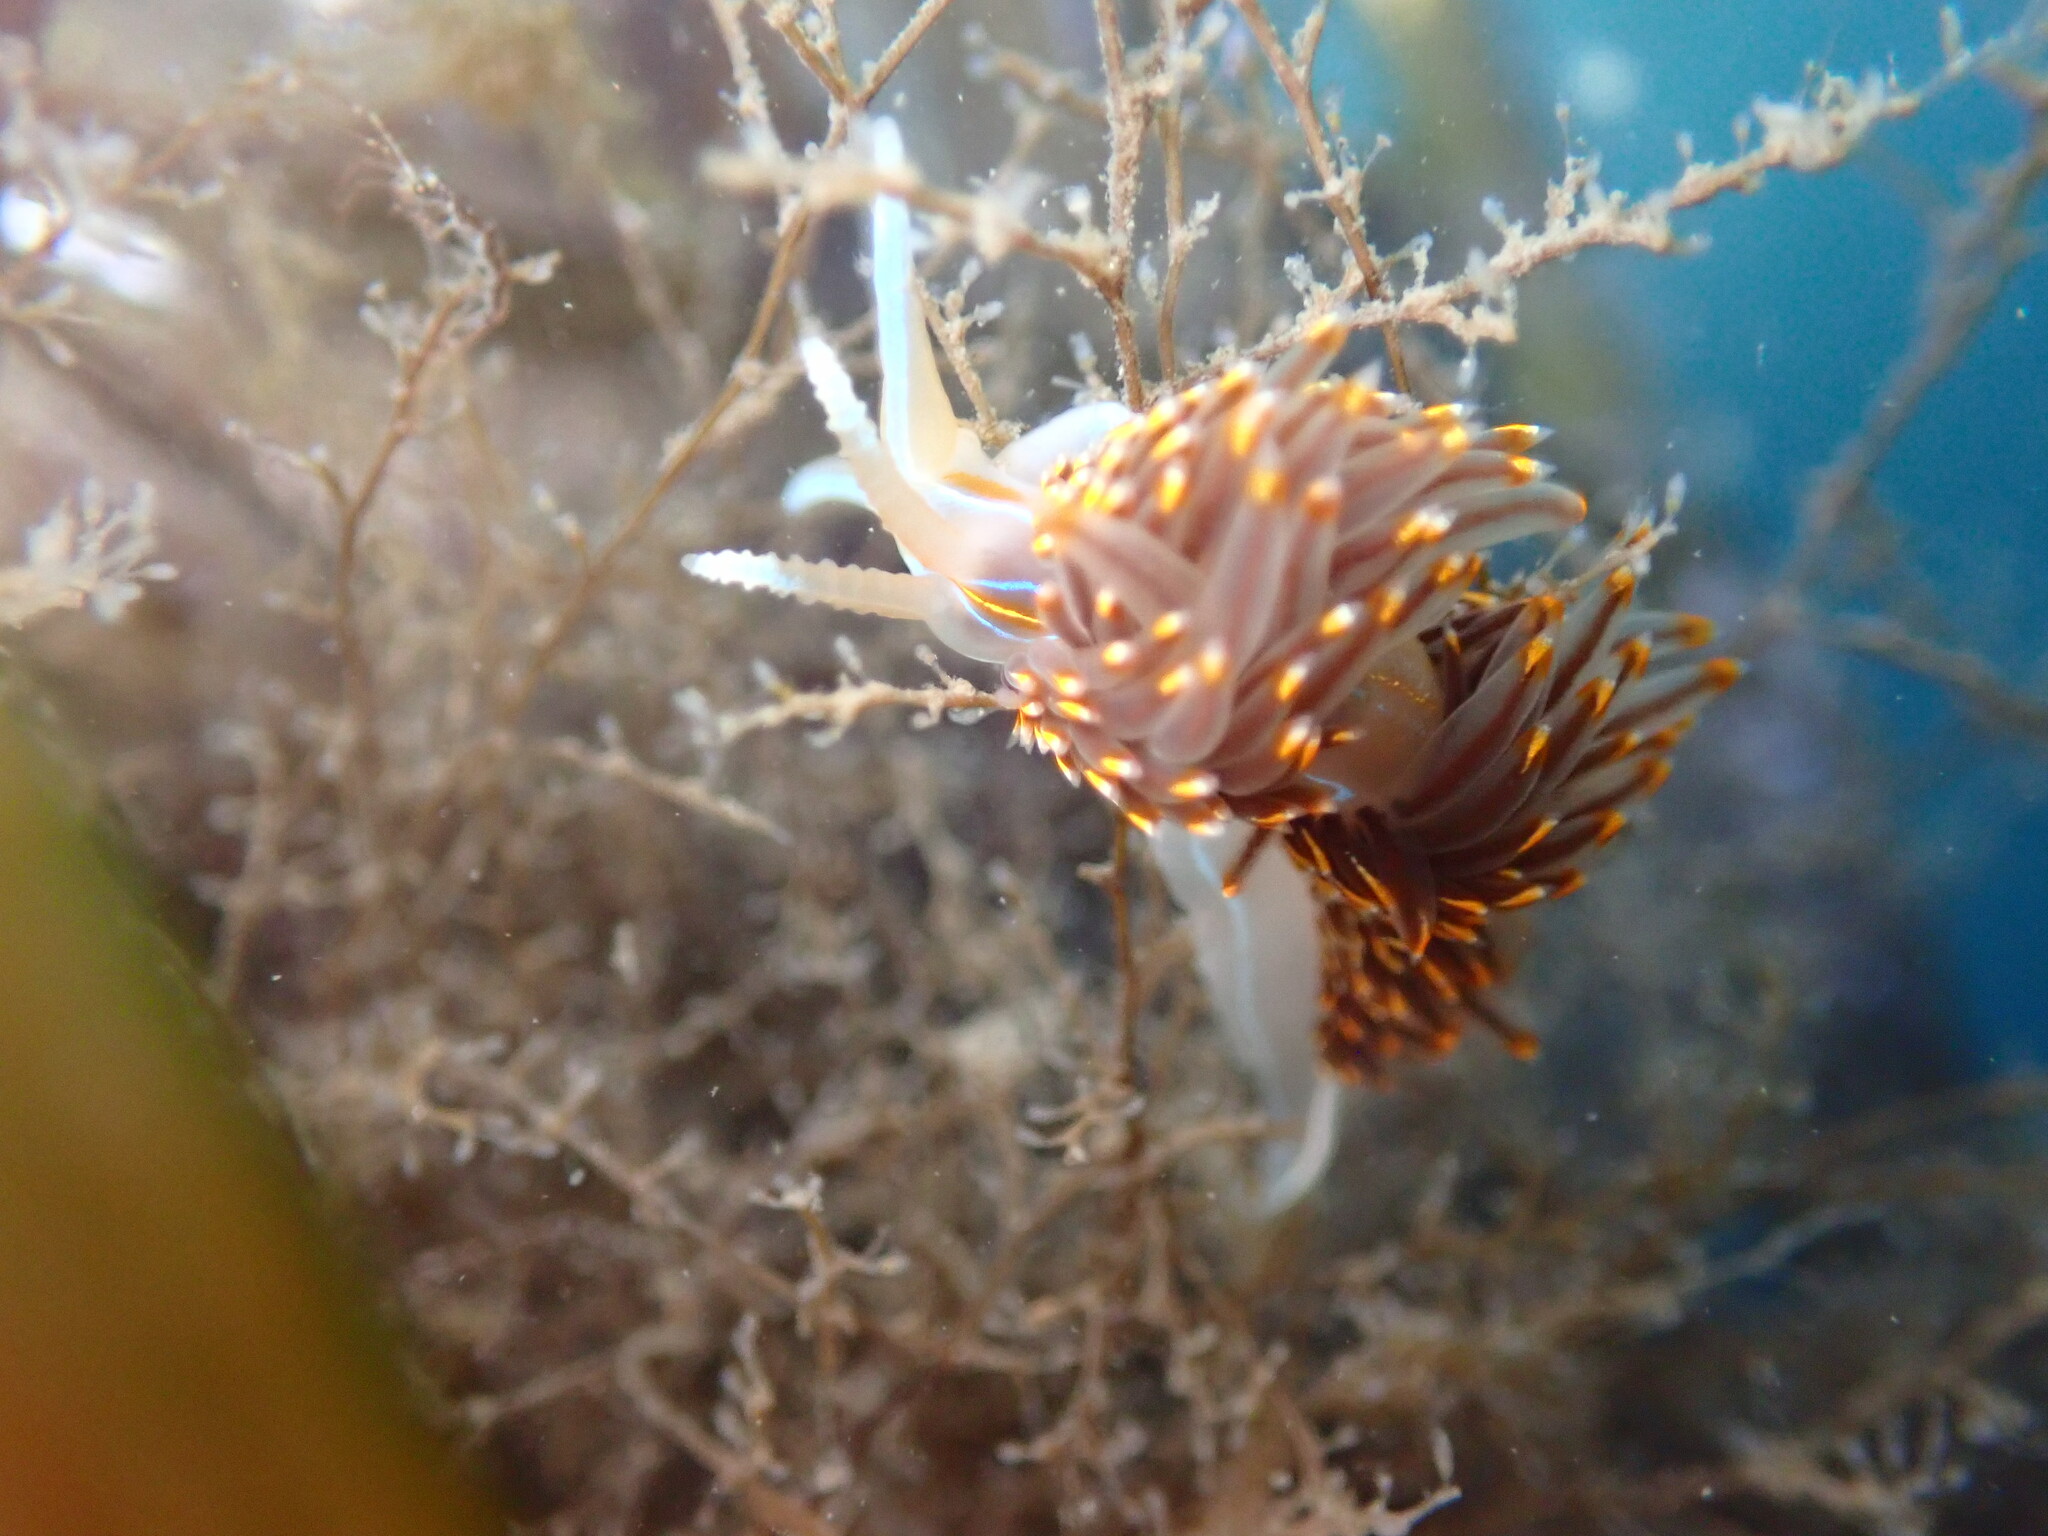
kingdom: Animalia
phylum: Mollusca
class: Gastropoda
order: Nudibranchia
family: Myrrhinidae
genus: Hermissenda
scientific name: Hermissenda opalescens
